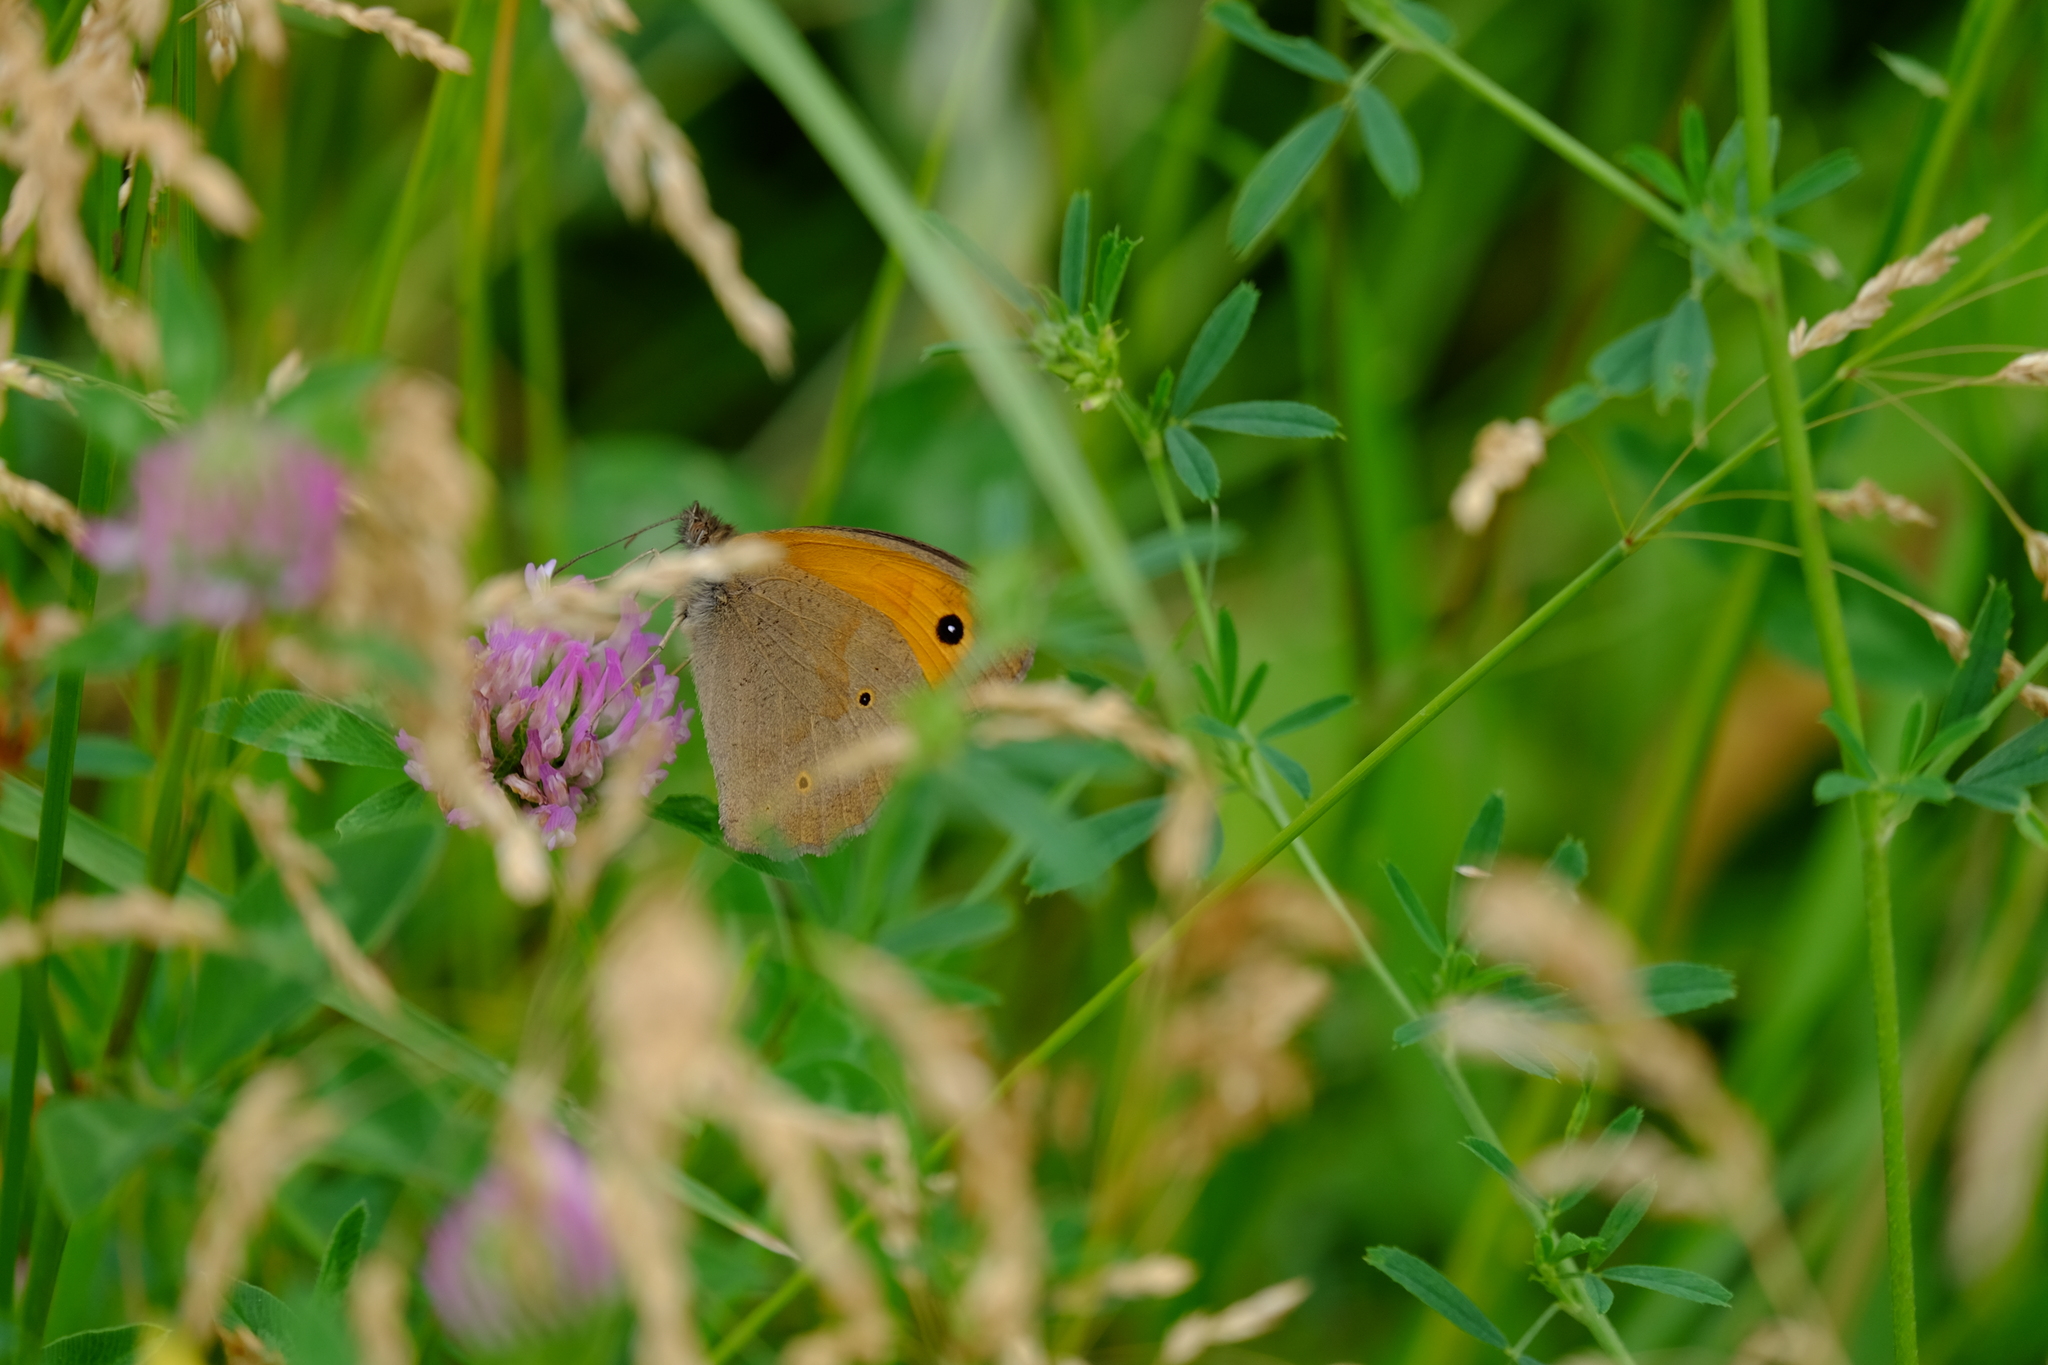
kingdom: Animalia
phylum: Arthropoda
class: Insecta
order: Lepidoptera
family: Nymphalidae
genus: Maniola
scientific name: Maniola jurtina
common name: Meadow brown
